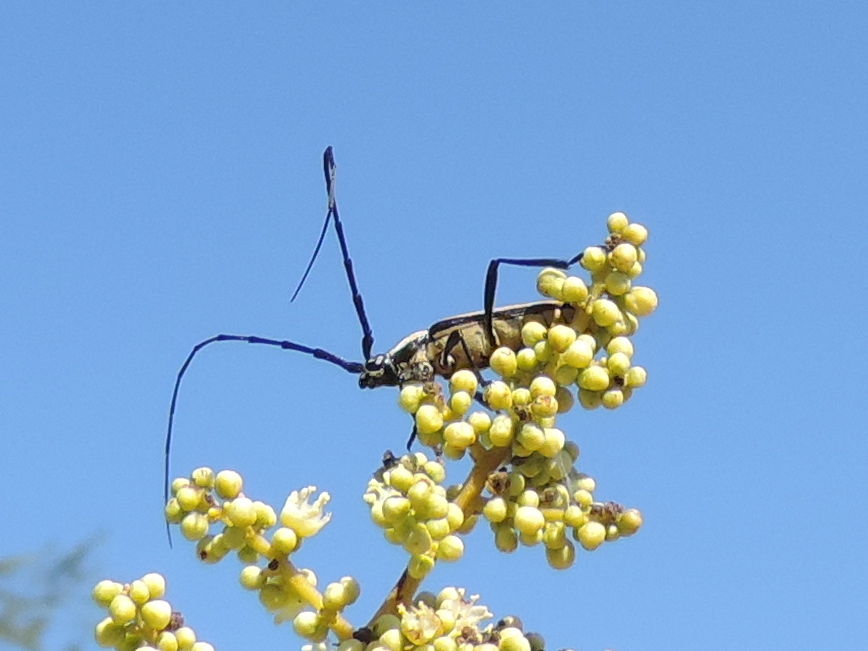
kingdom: Plantae
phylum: Tracheophyta
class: Magnoliopsida
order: Sapindales
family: Sapindaceae
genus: Sapindus
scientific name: Sapindus drummondii
